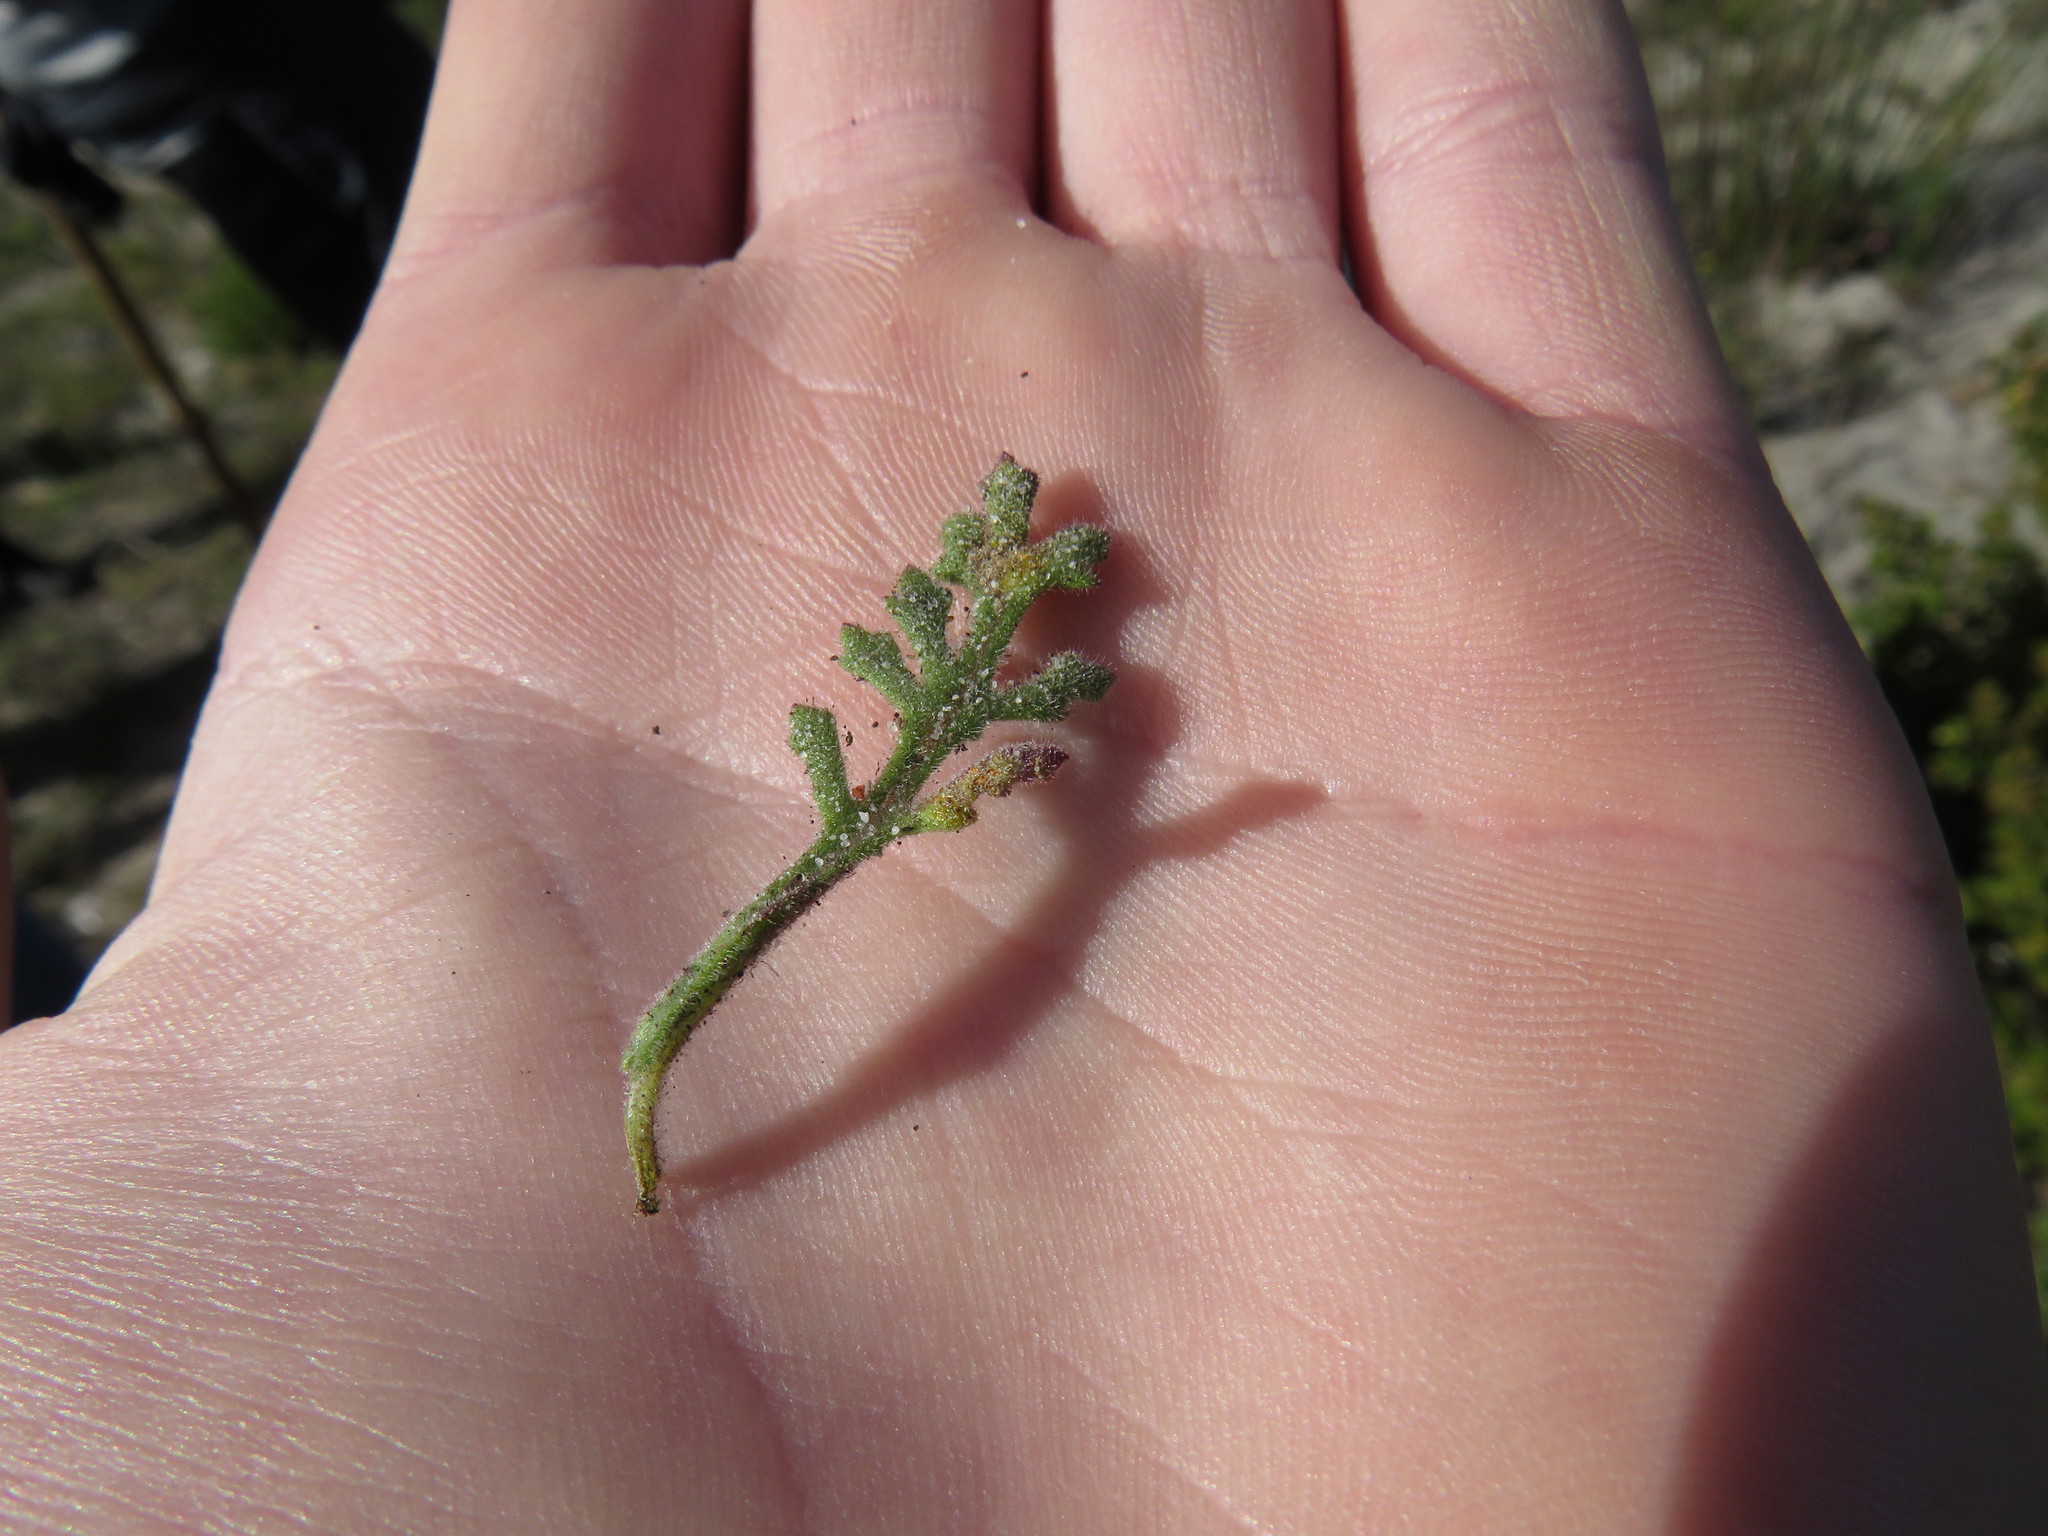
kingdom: Plantae
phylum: Tracheophyta
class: Magnoliopsida
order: Asterales
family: Asteraceae
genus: Senecio
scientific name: Senecio arenarius
